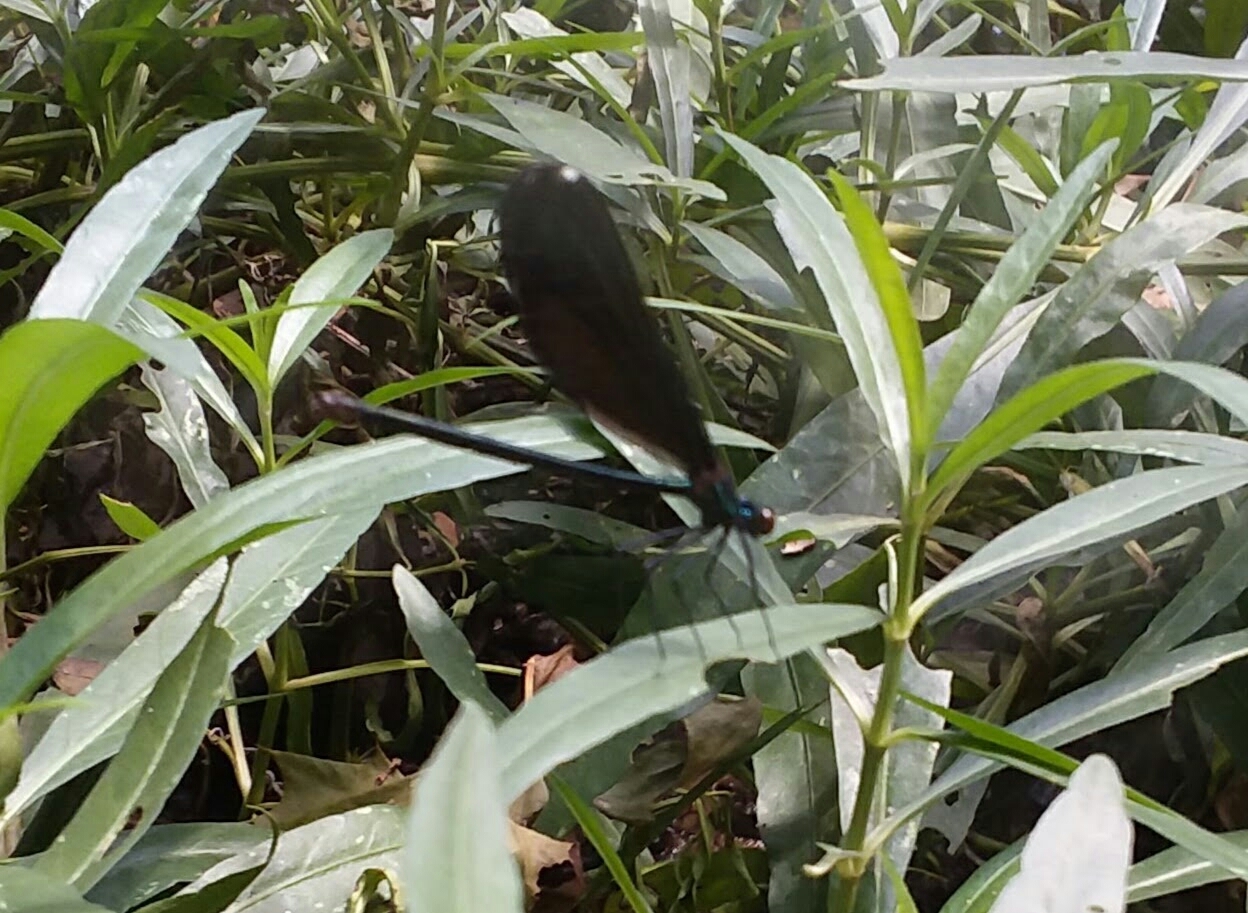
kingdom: Animalia
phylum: Arthropoda
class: Insecta
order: Odonata
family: Calopterygidae
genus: Calopteryx
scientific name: Calopteryx maculata
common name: Ebony jewelwing
